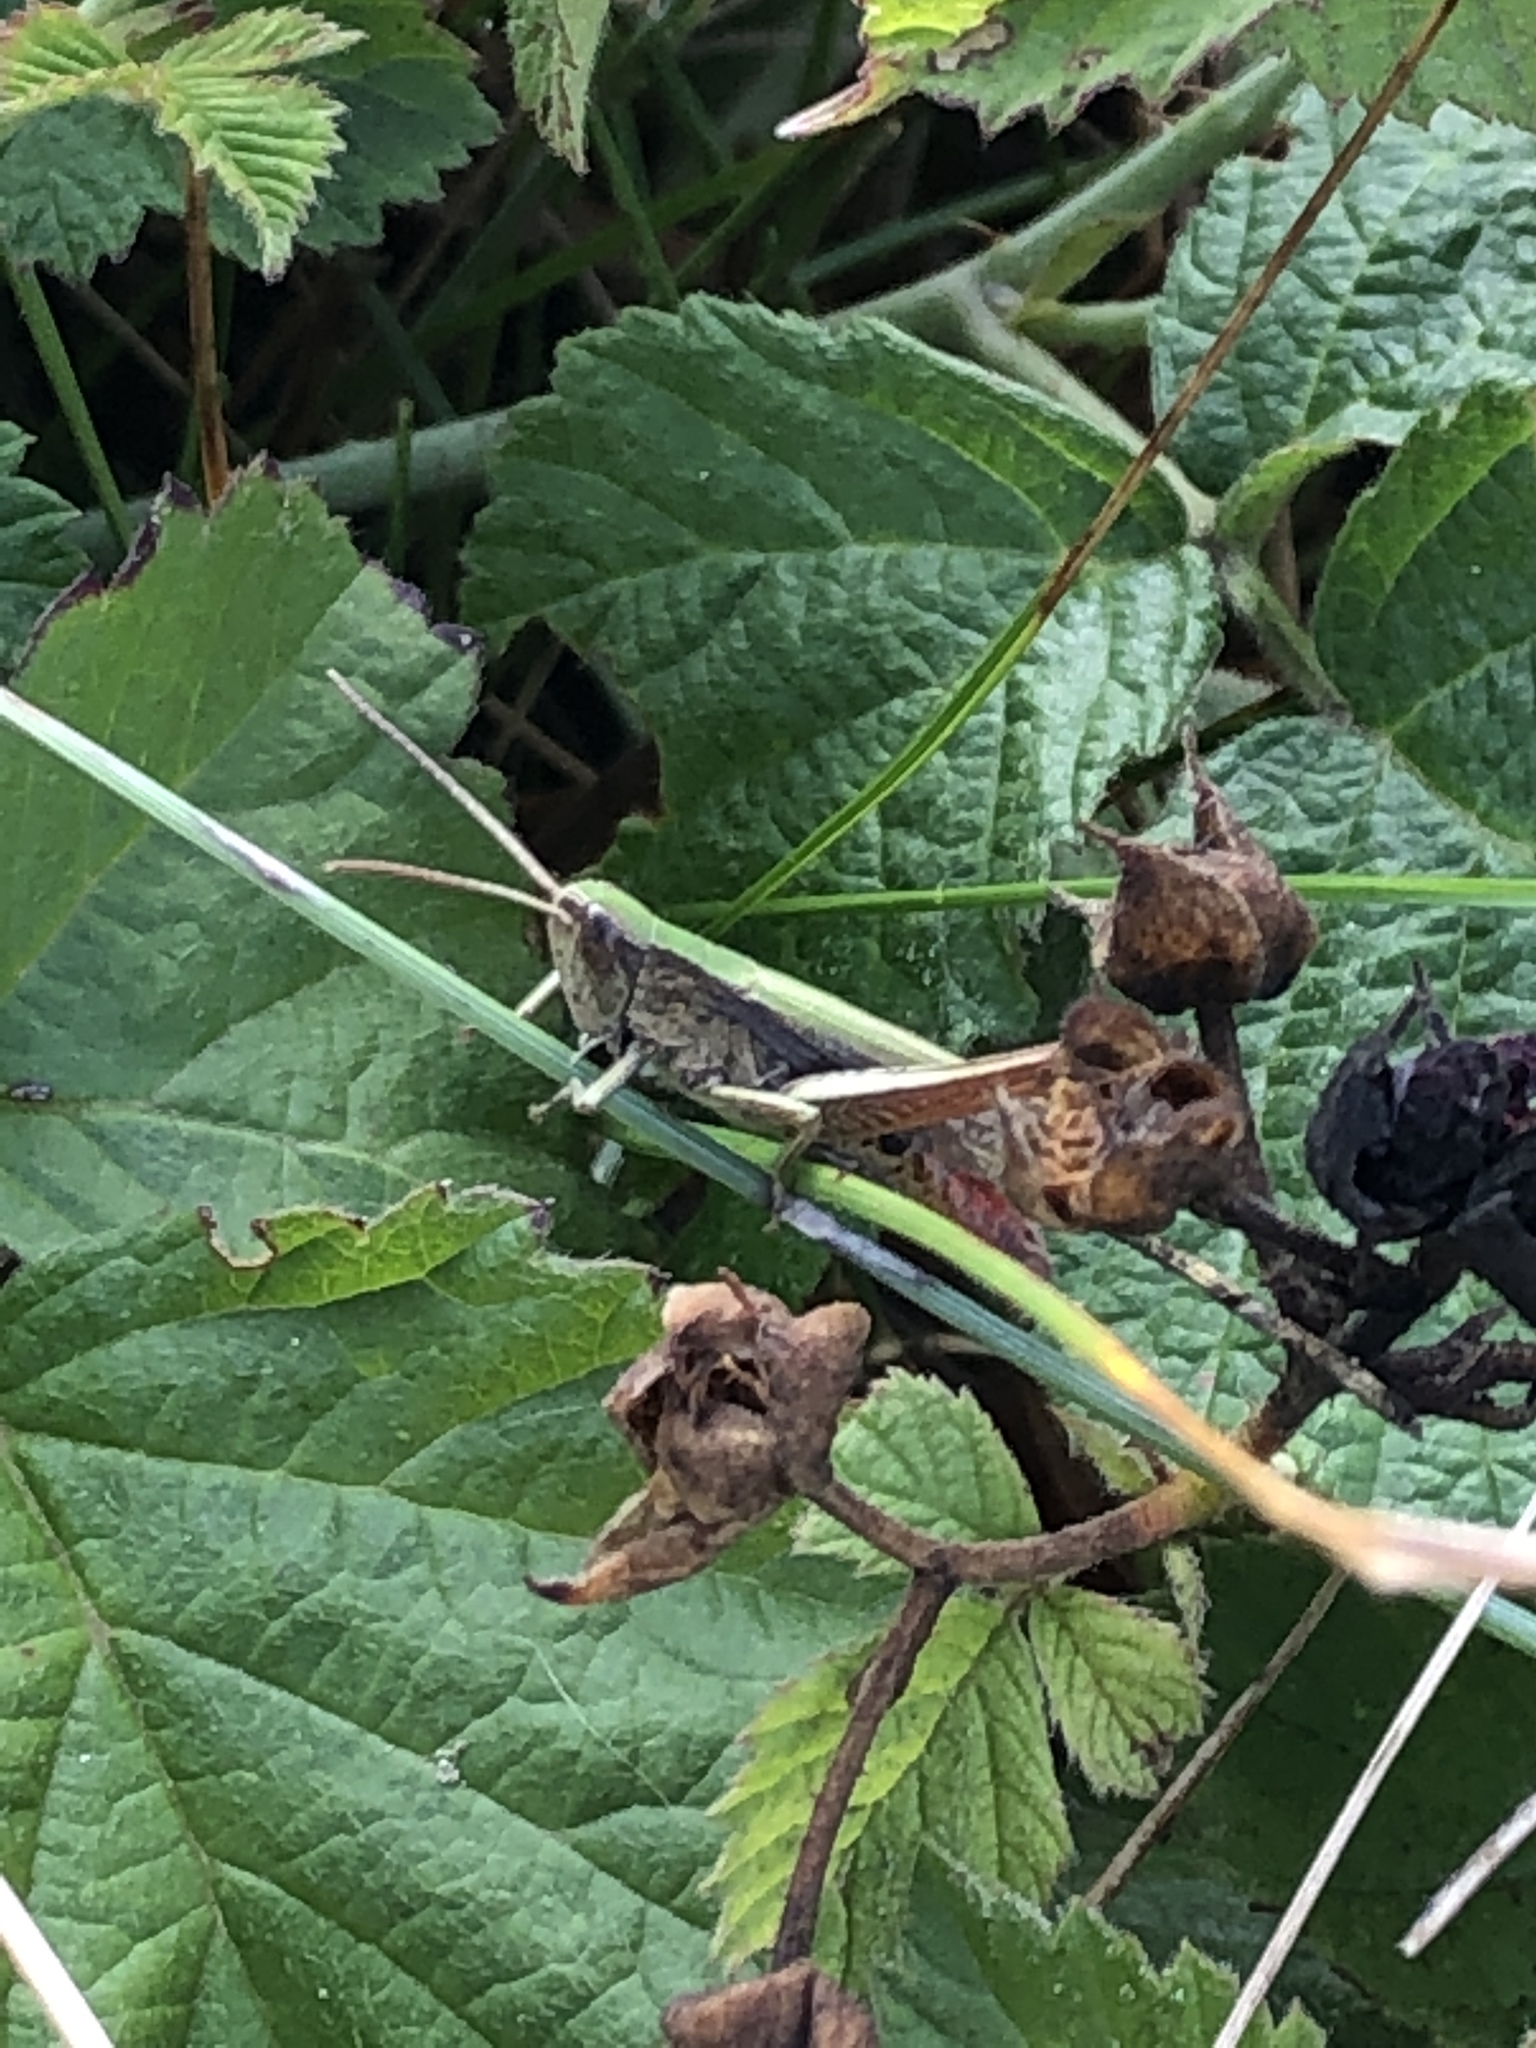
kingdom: Animalia
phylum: Arthropoda
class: Insecta
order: Orthoptera
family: Acrididae
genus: Chorthippus
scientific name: Chorthippus dorsatus
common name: Steppe grasshopper
